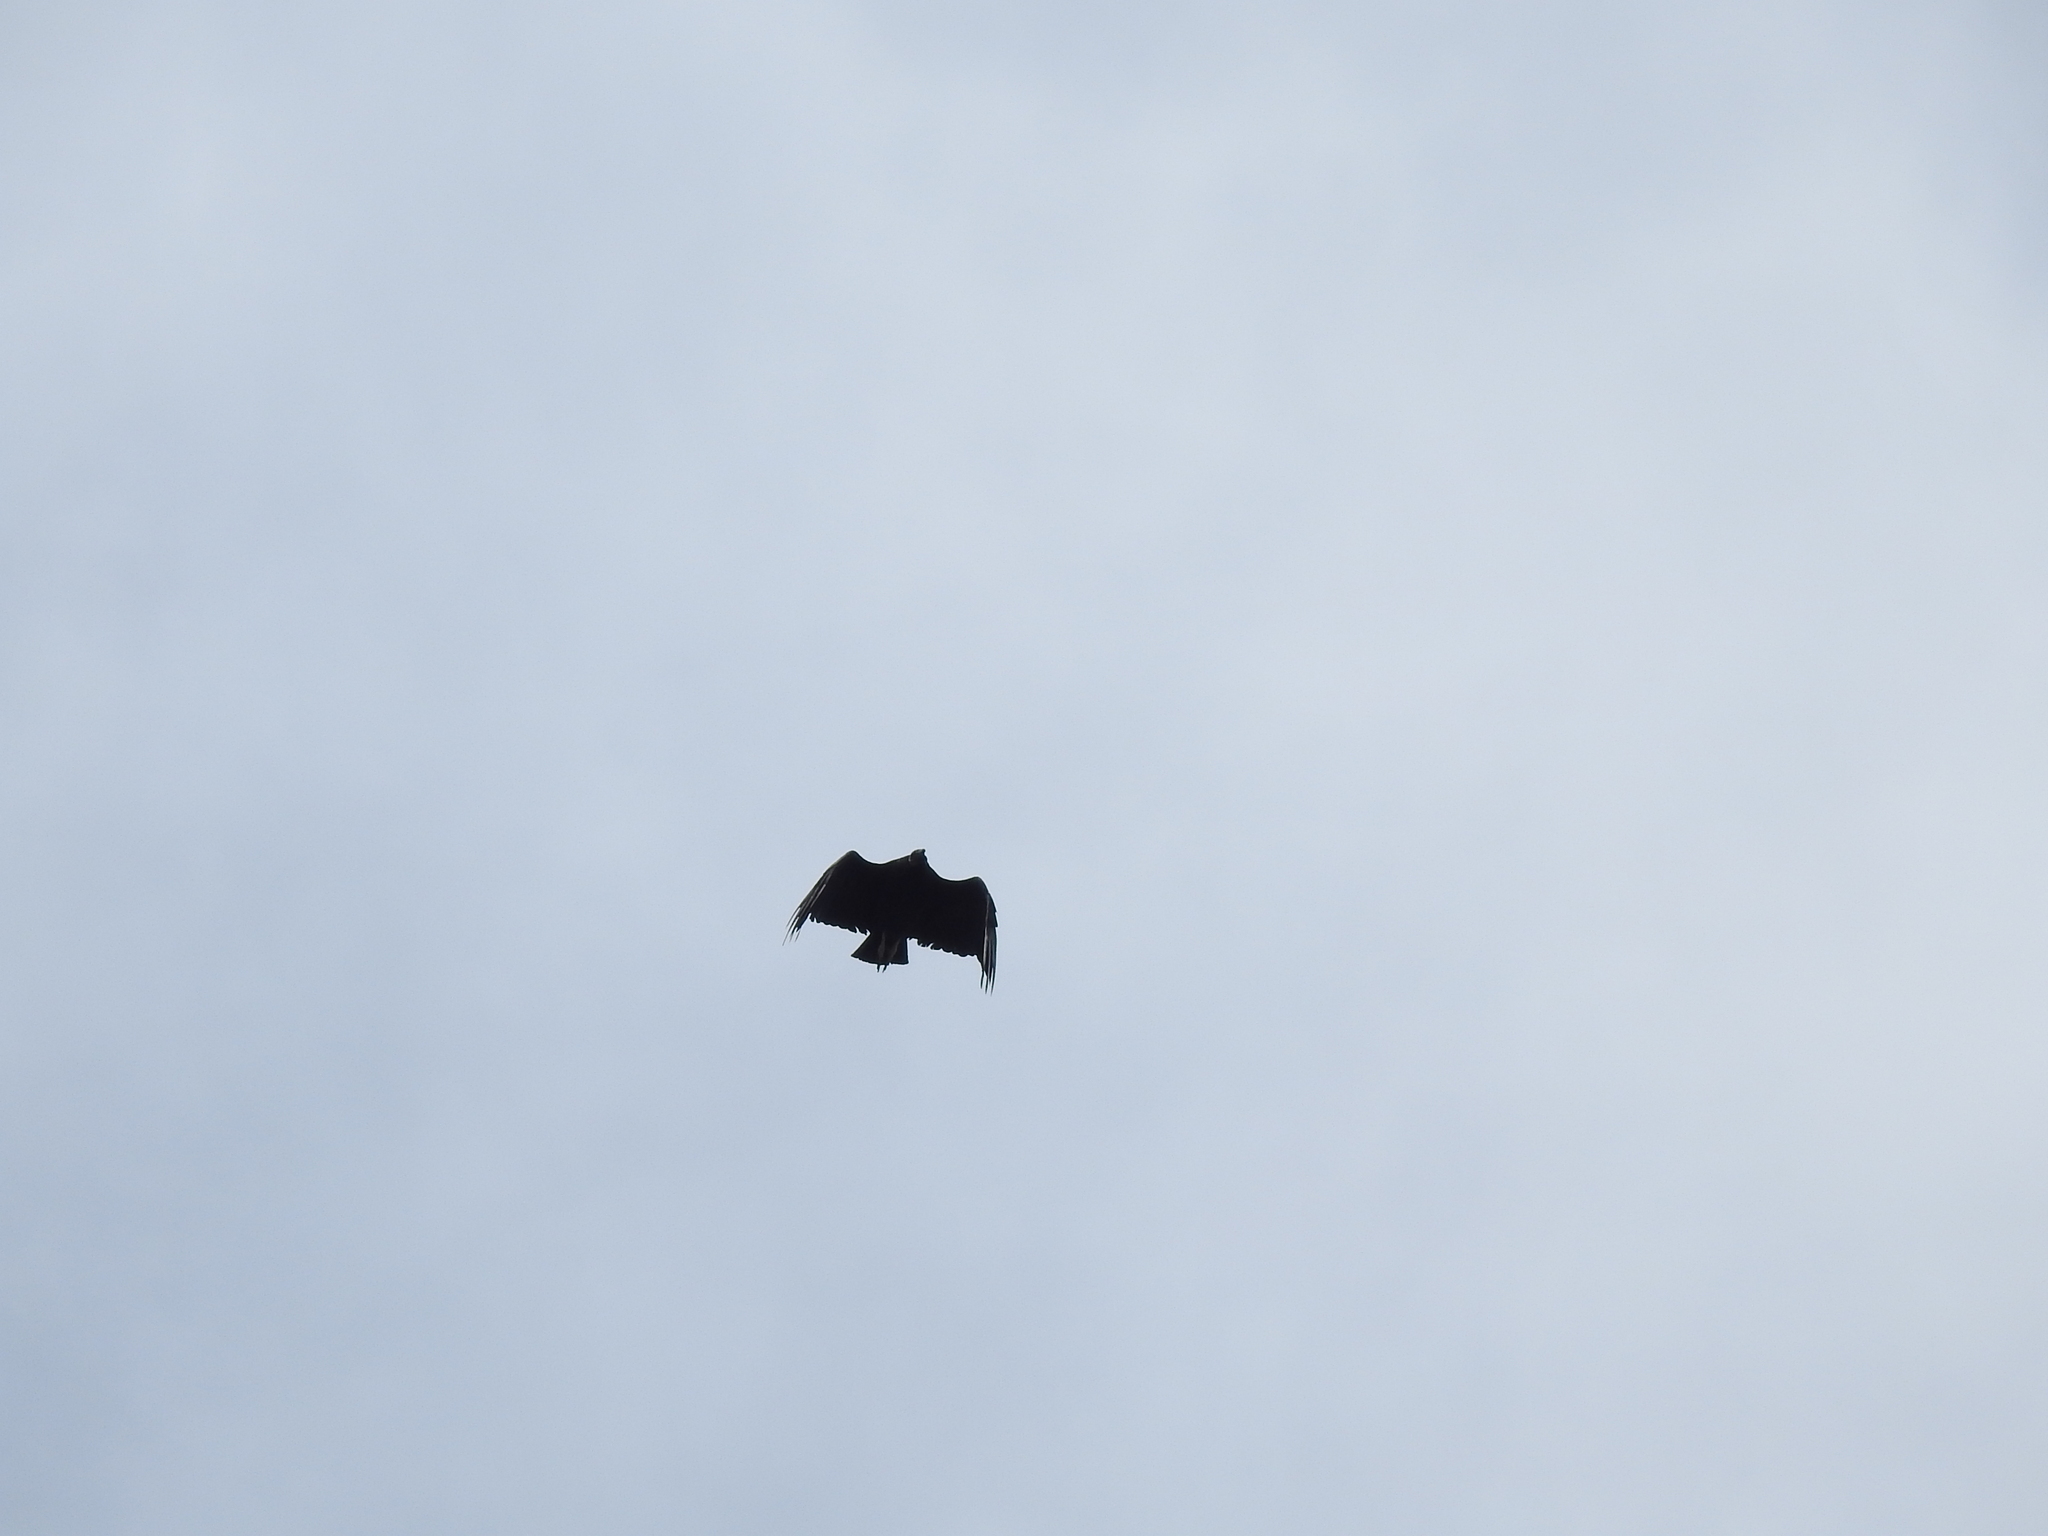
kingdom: Animalia
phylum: Chordata
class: Aves
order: Accipitriformes
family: Cathartidae
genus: Coragyps
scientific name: Coragyps atratus
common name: Black vulture
